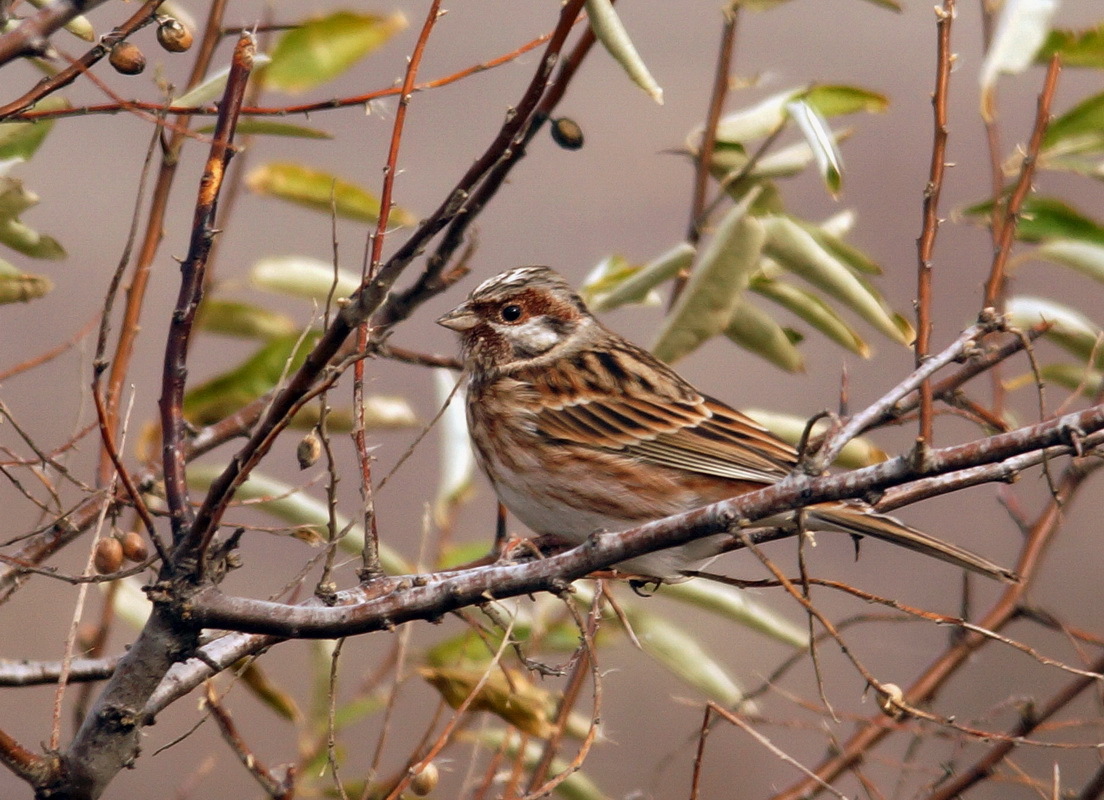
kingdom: Animalia
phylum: Chordata
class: Aves
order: Passeriformes
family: Emberizidae
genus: Emberiza
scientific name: Emberiza leucocephalos
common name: Pine bunting
